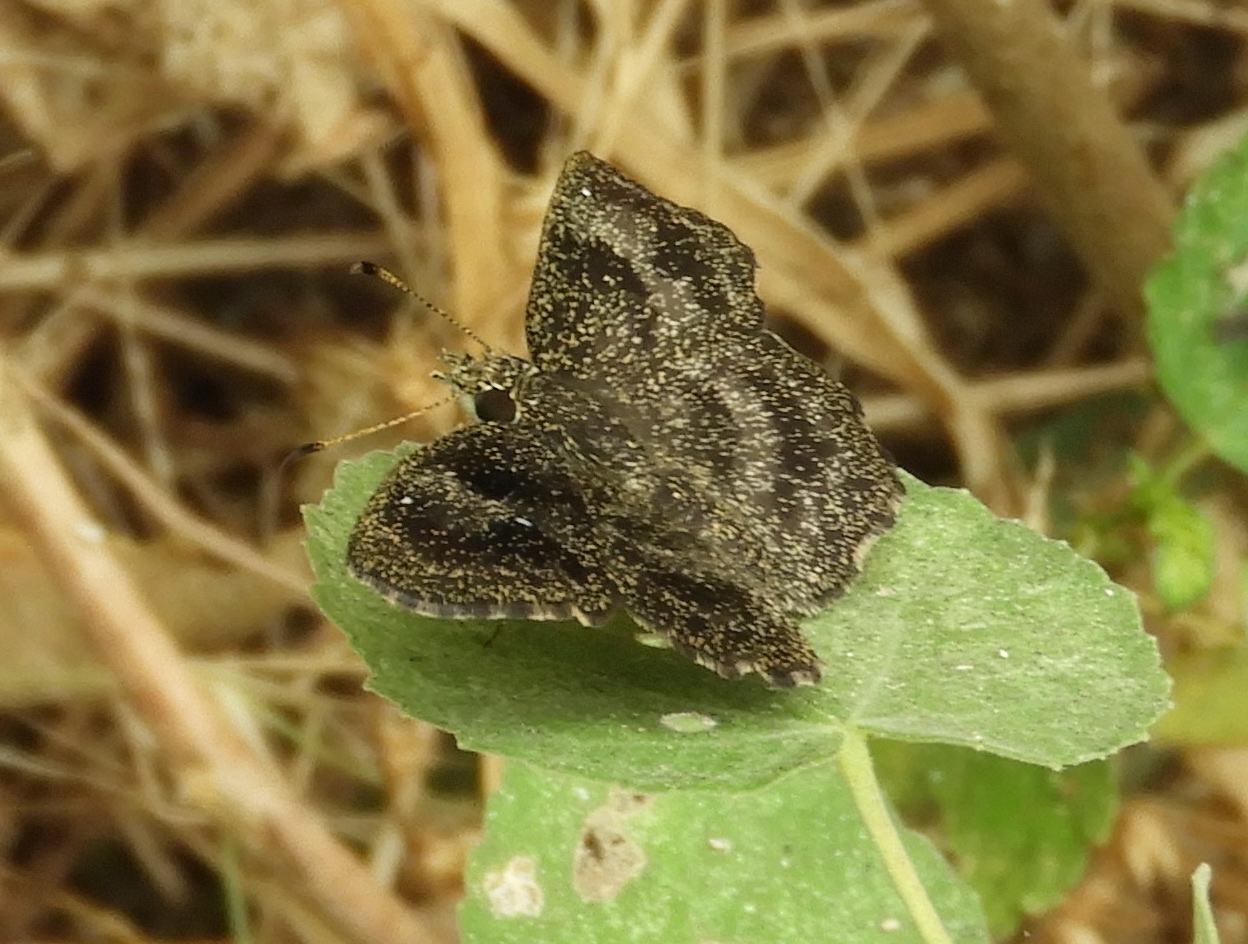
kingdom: Animalia
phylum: Arthropoda
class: Insecta
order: Lepidoptera
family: Hesperiidae
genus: Staphylus
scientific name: Staphylus mazans
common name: Mazans scallopwing
